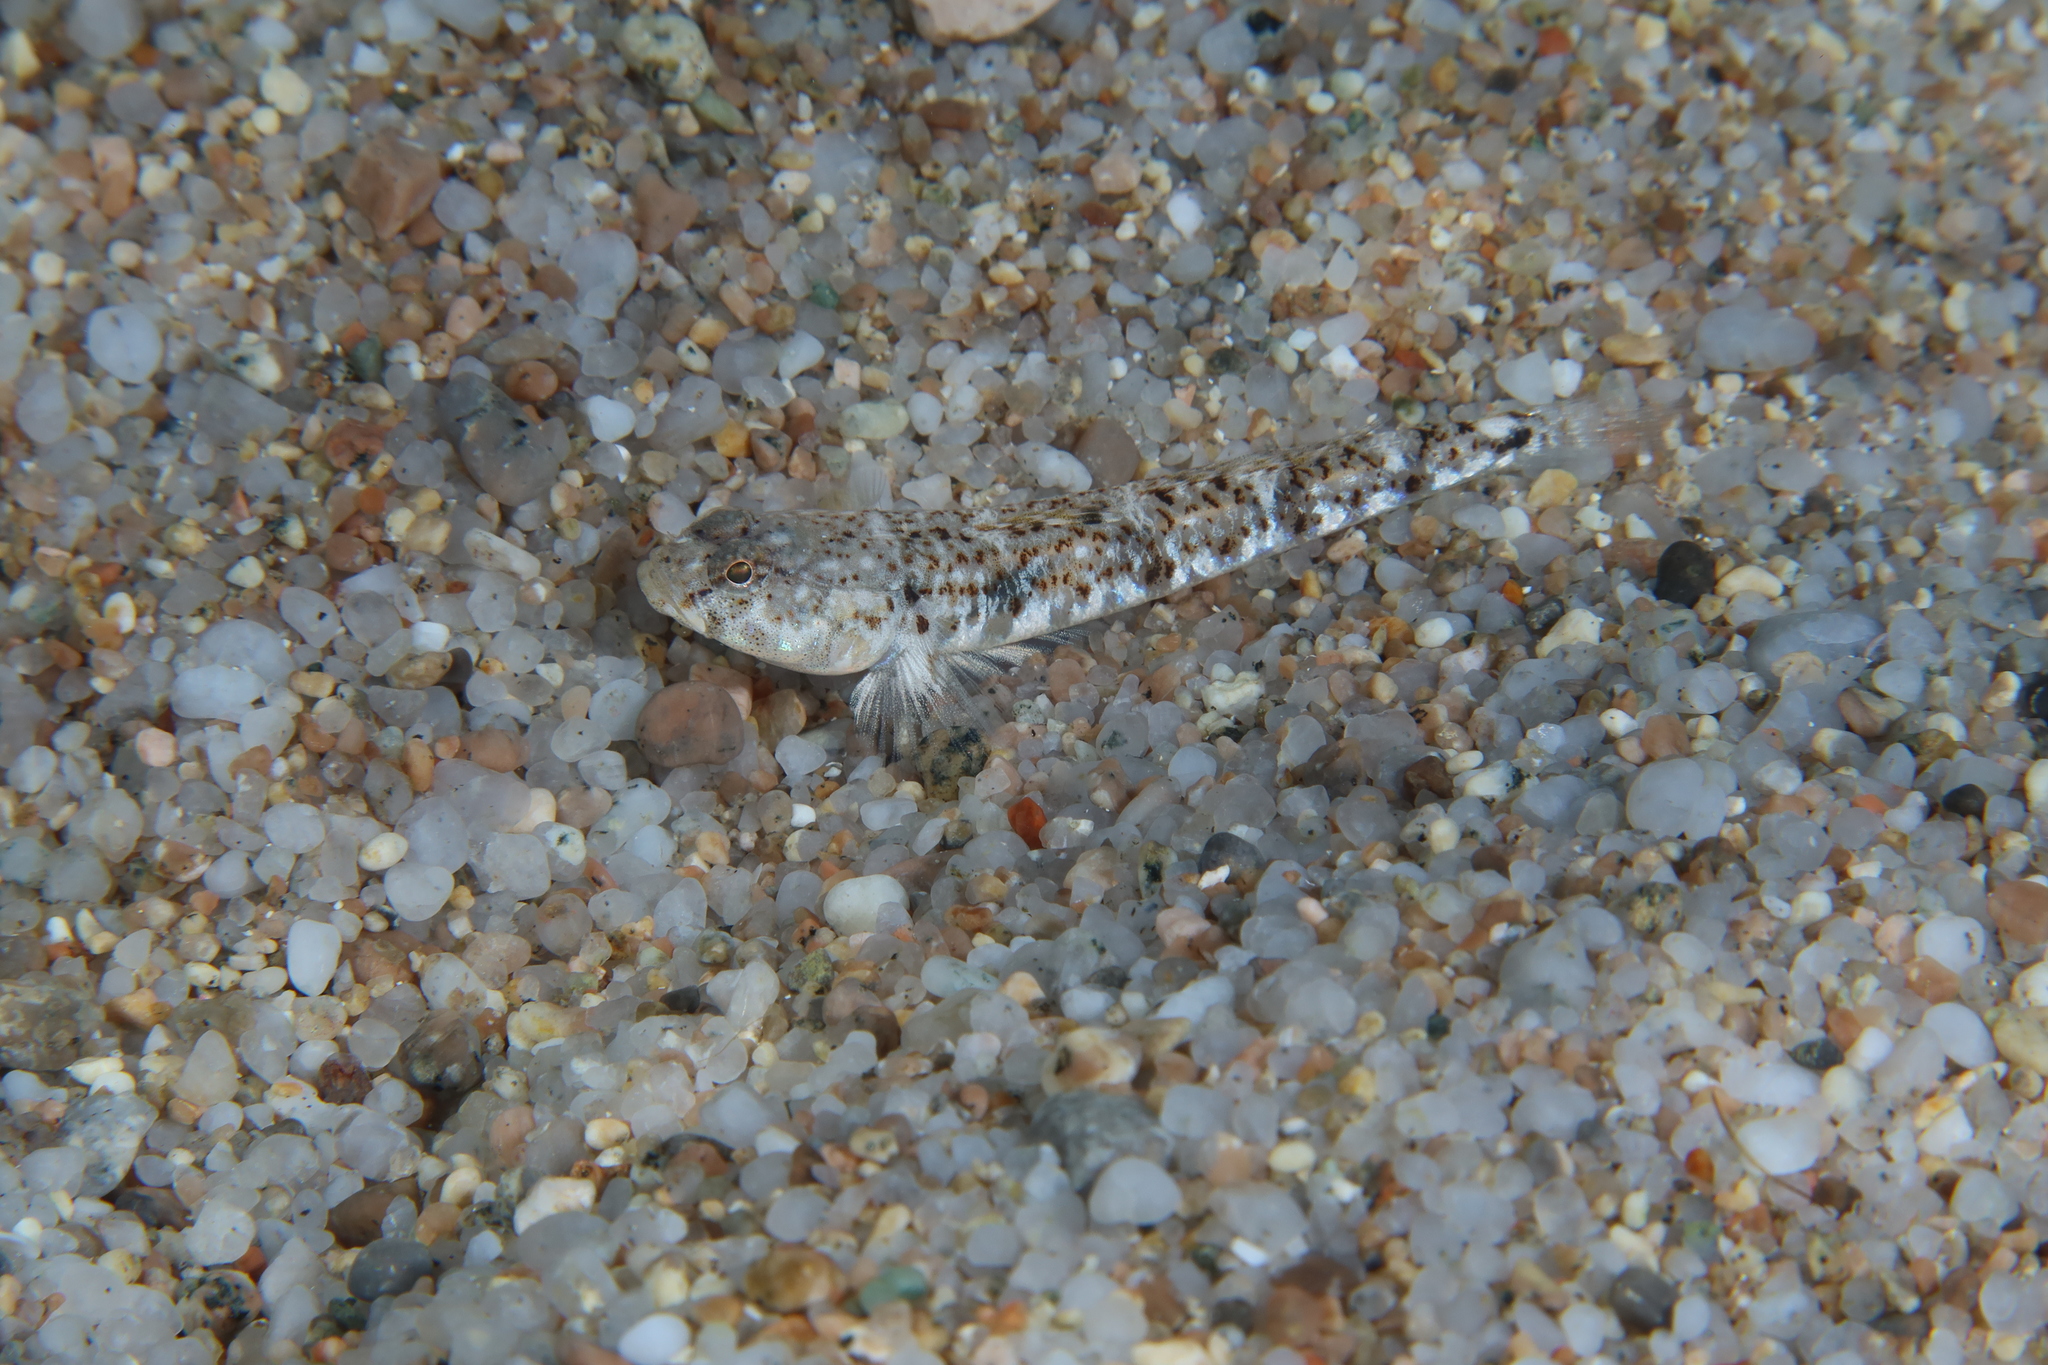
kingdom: Animalia
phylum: Chordata
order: Perciformes
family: Gobiidae
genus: Pomatoschistus
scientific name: Pomatoschistus marmoratus
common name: Marbled goby
